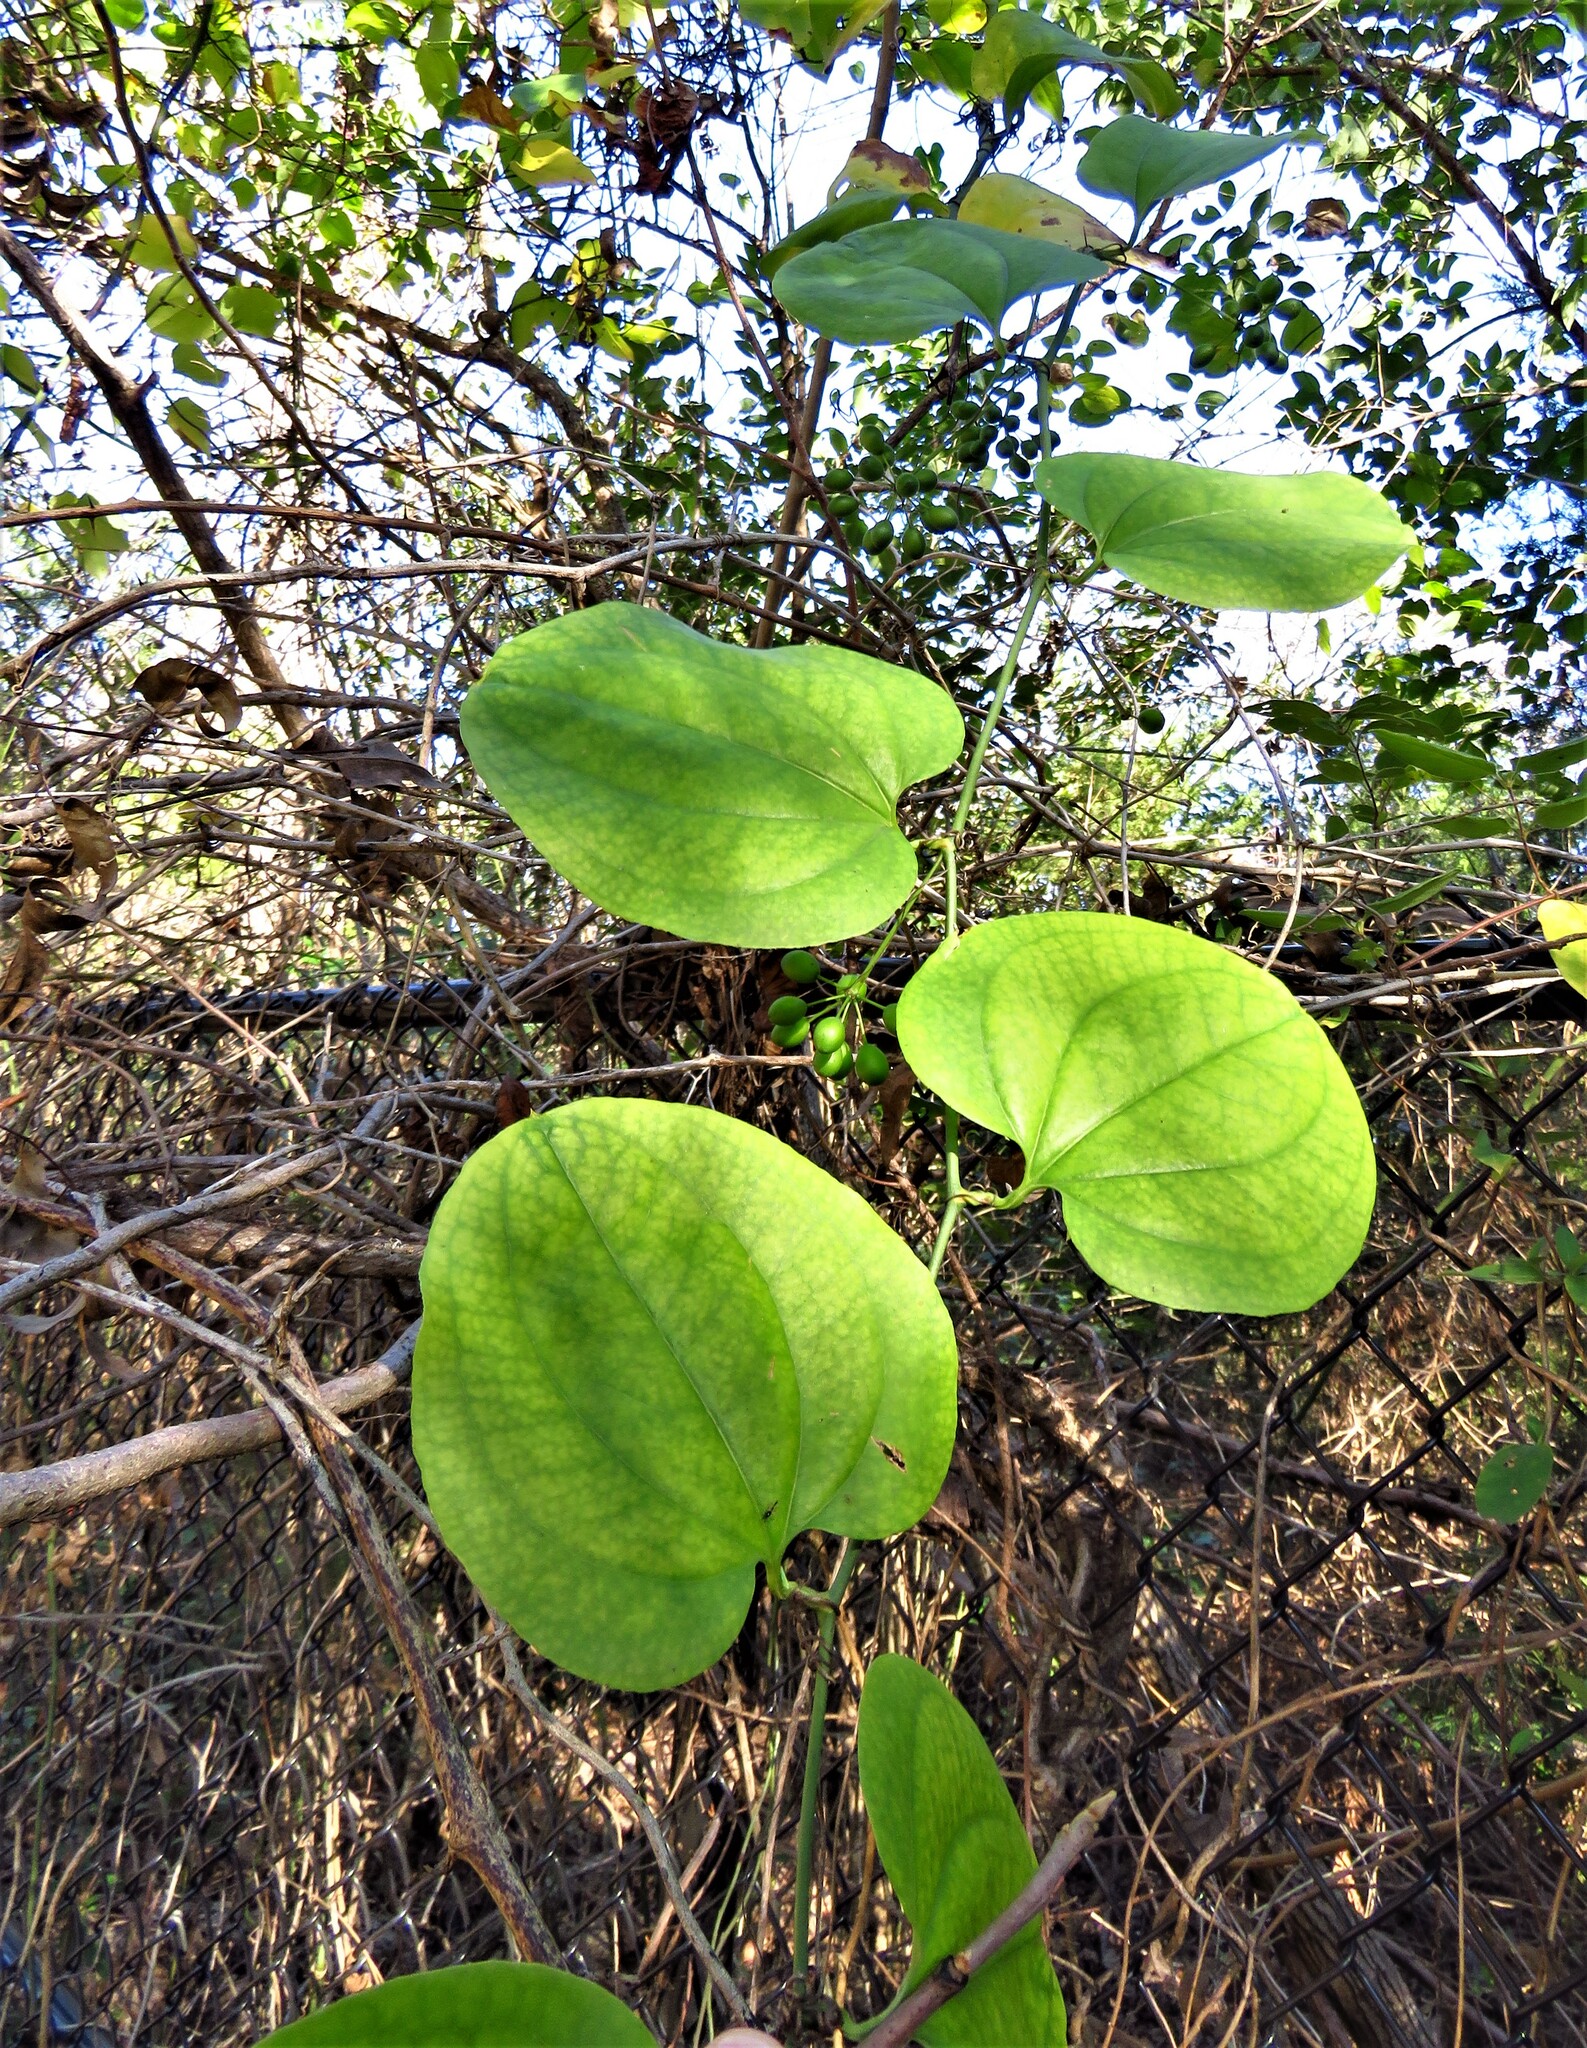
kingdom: Plantae
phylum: Tracheophyta
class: Liliopsida
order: Liliales
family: Smilacaceae
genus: Smilax
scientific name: Smilax rotundifolia
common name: Bullbriar
